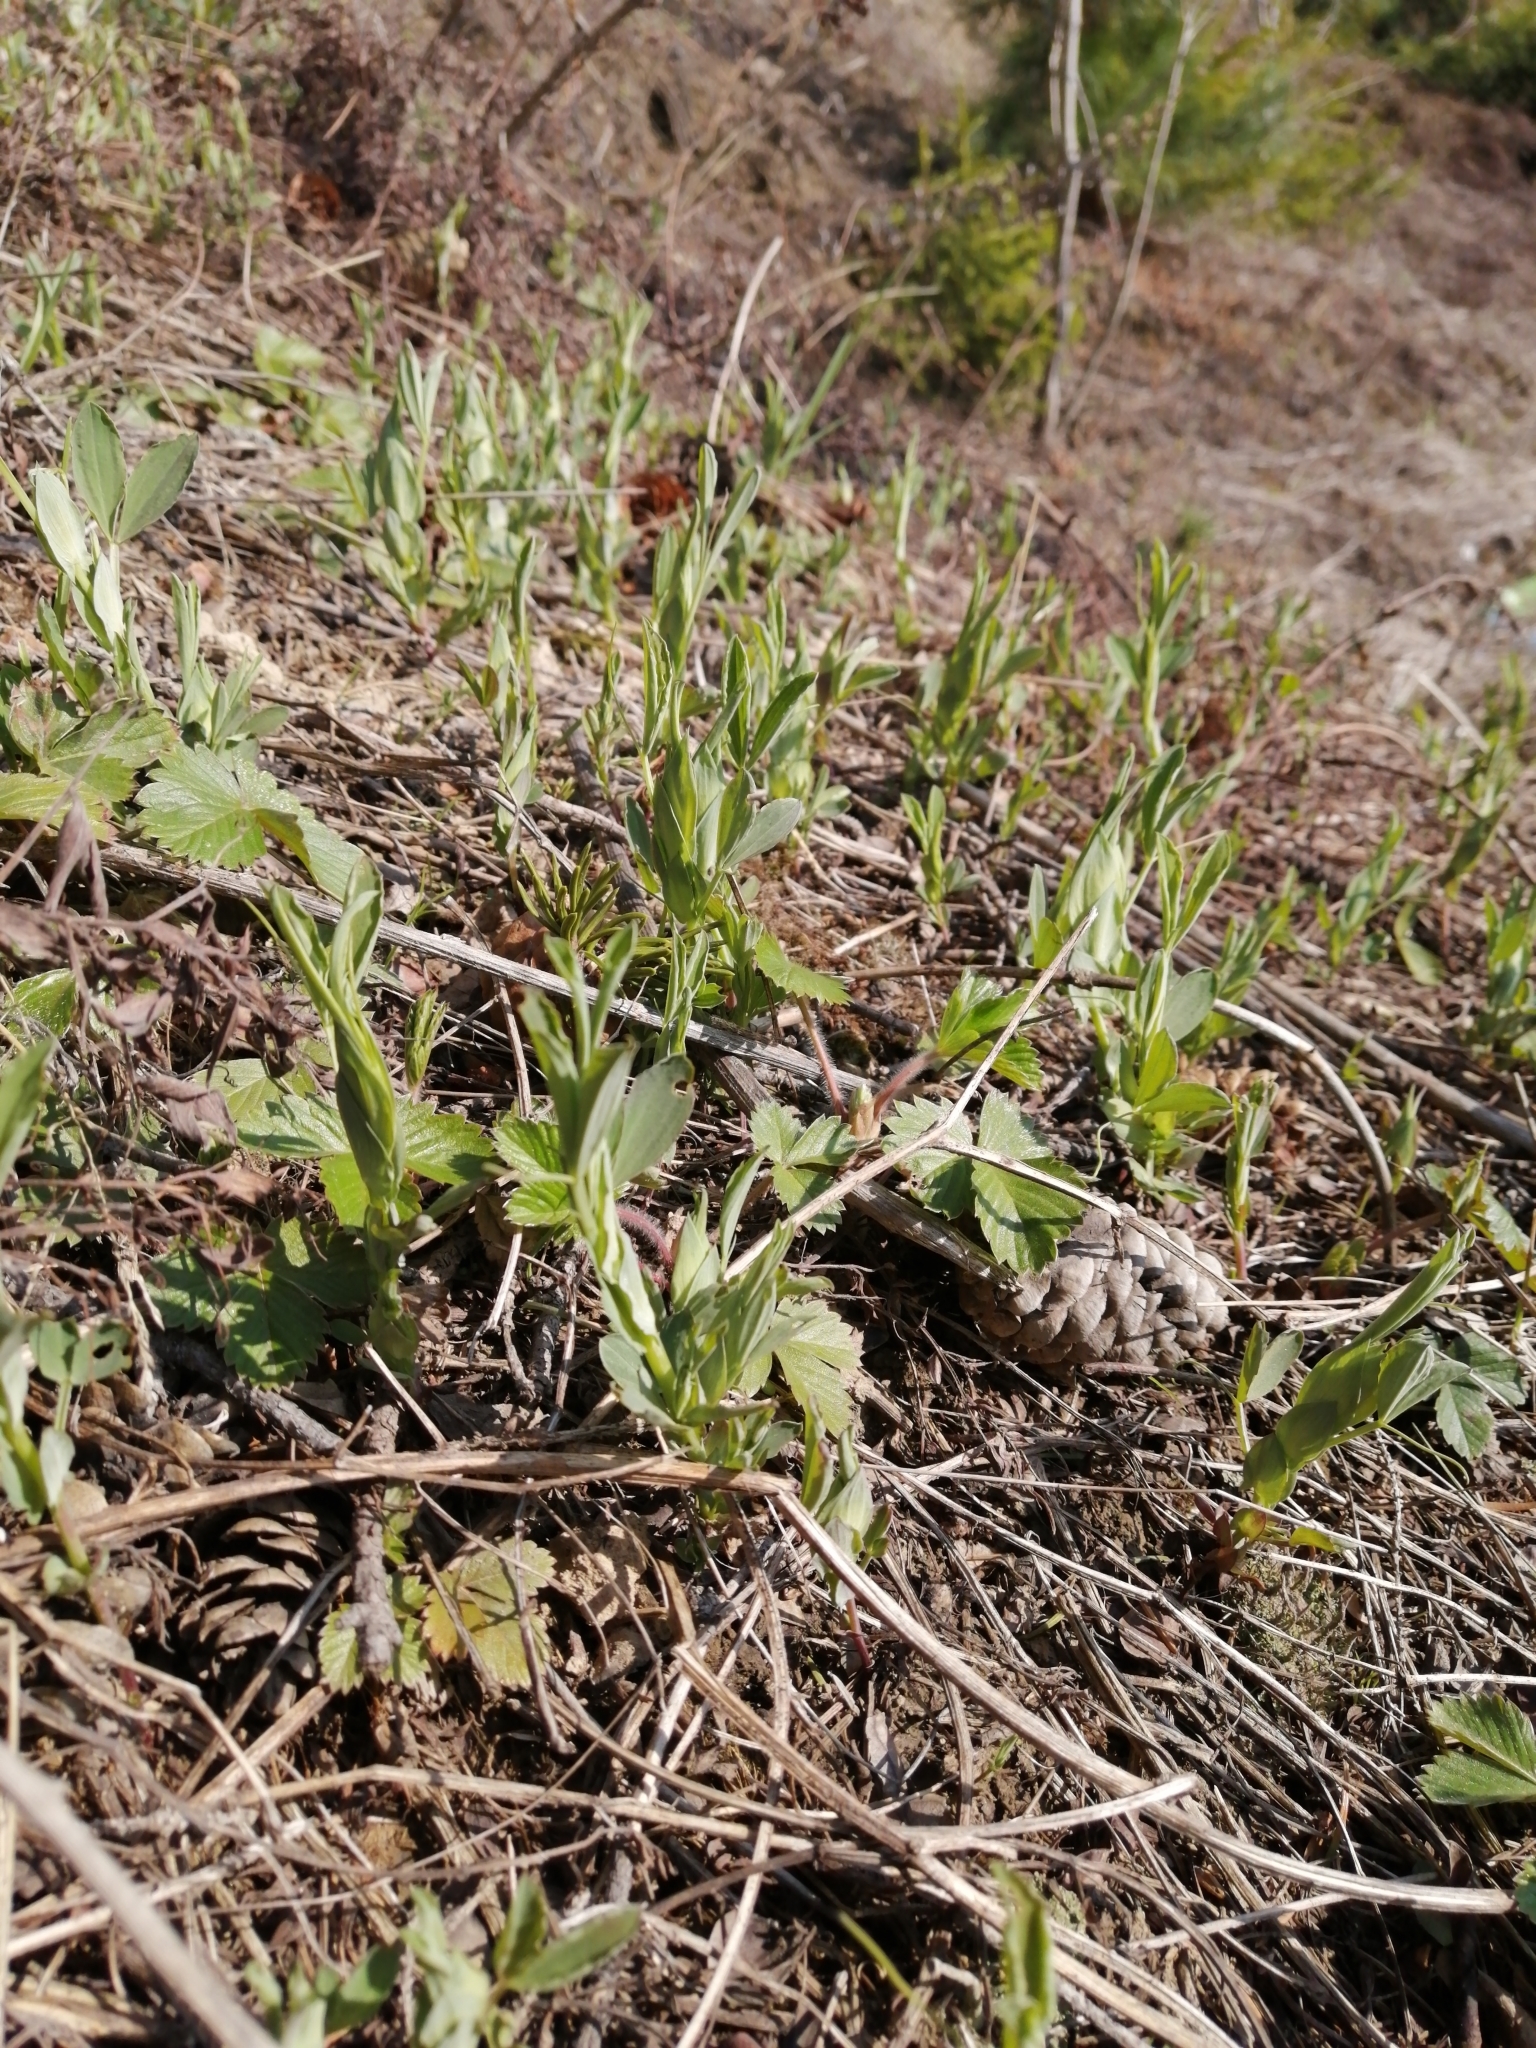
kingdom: Plantae
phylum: Tracheophyta
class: Magnoliopsida
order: Fabales
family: Fabaceae
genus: Lathyrus
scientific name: Lathyrus pratensis
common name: Meadow vetchling
